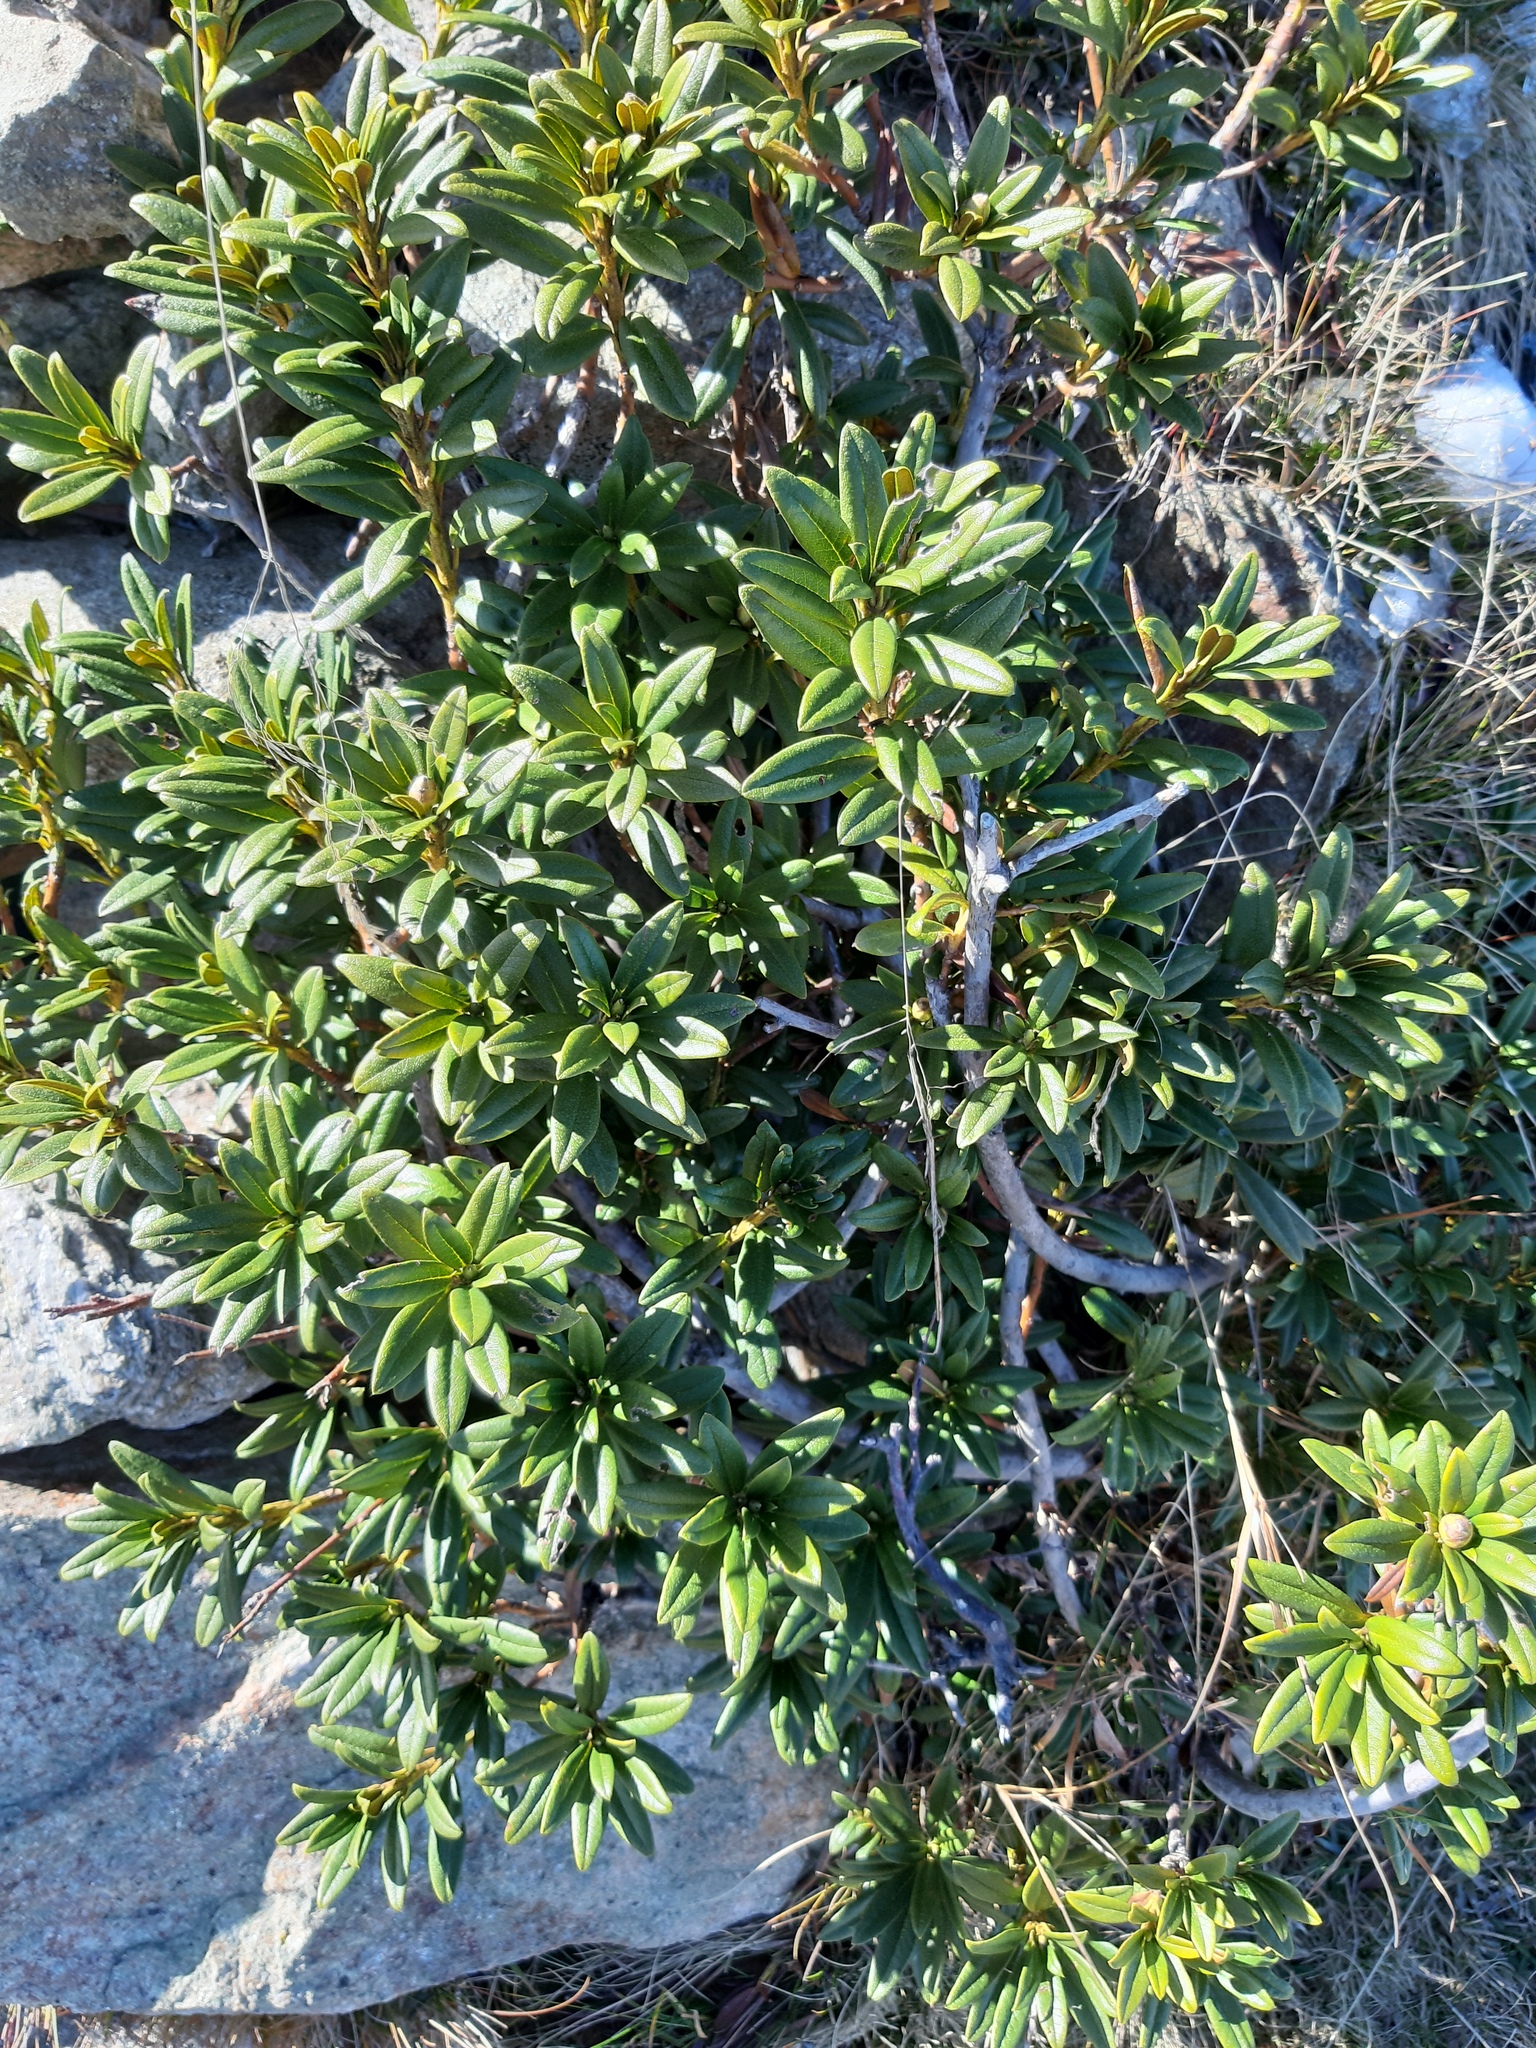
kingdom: Plantae
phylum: Tracheophyta
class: Magnoliopsida
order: Ericales
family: Ericaceae
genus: Rhododendron
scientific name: Rhododendron ferrugineum
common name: Alpenrose
